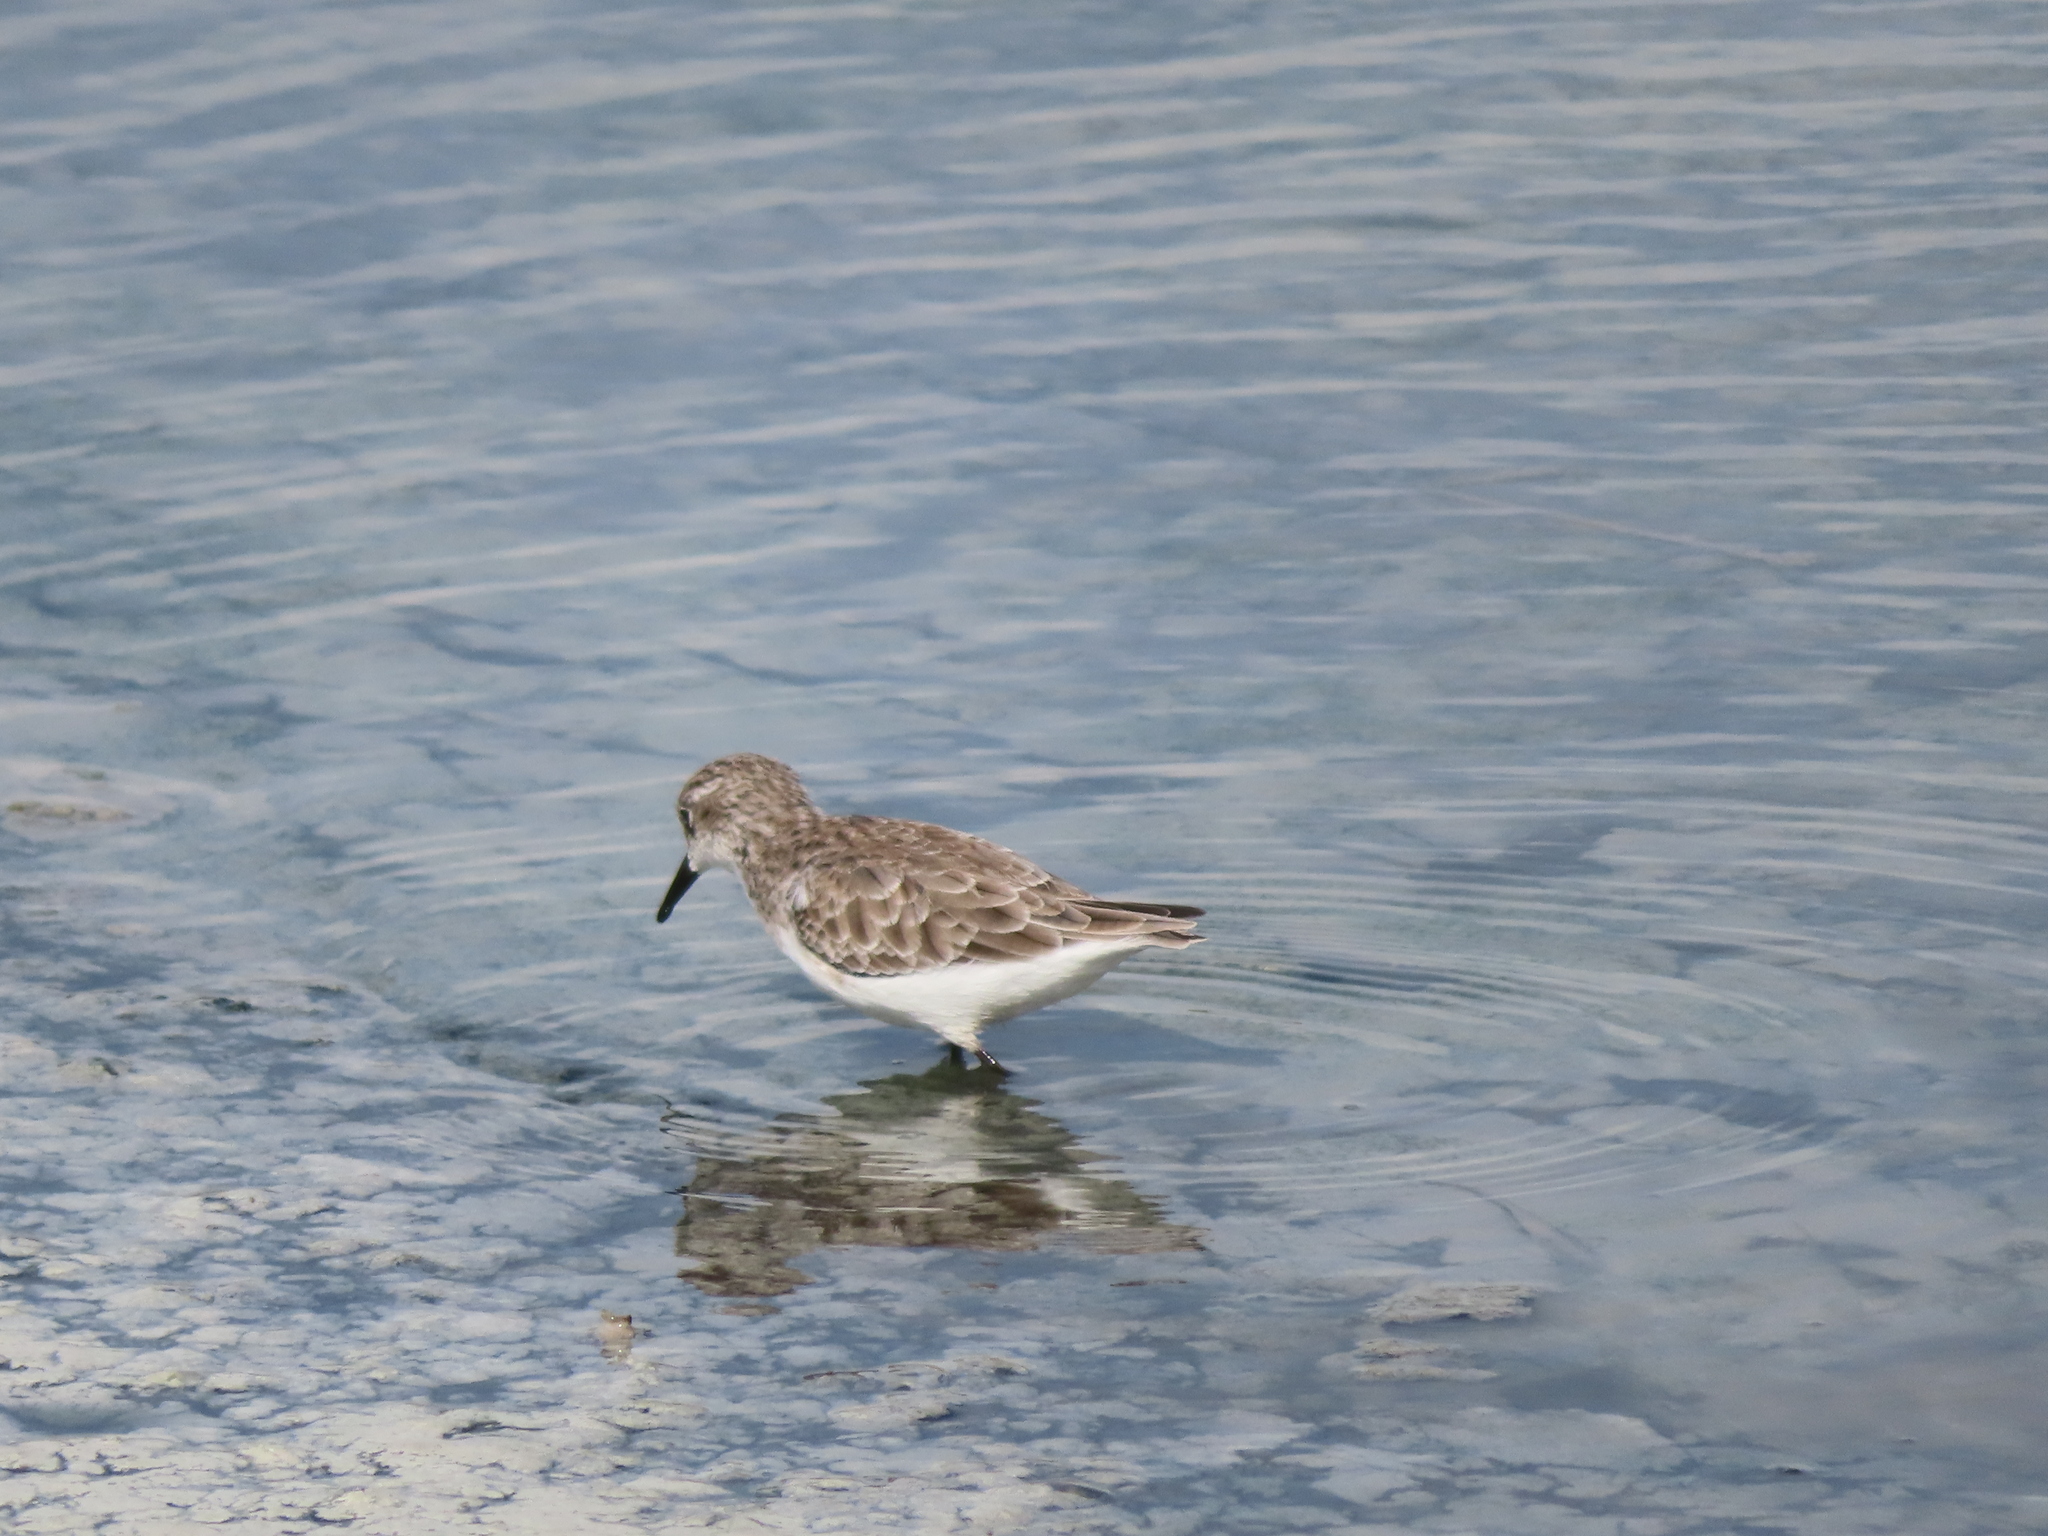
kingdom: Animalia
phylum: Chordata
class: Aves
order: Charadriiformes
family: Scolopacidae
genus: Calidris
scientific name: Calidris minuta
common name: Little stint
